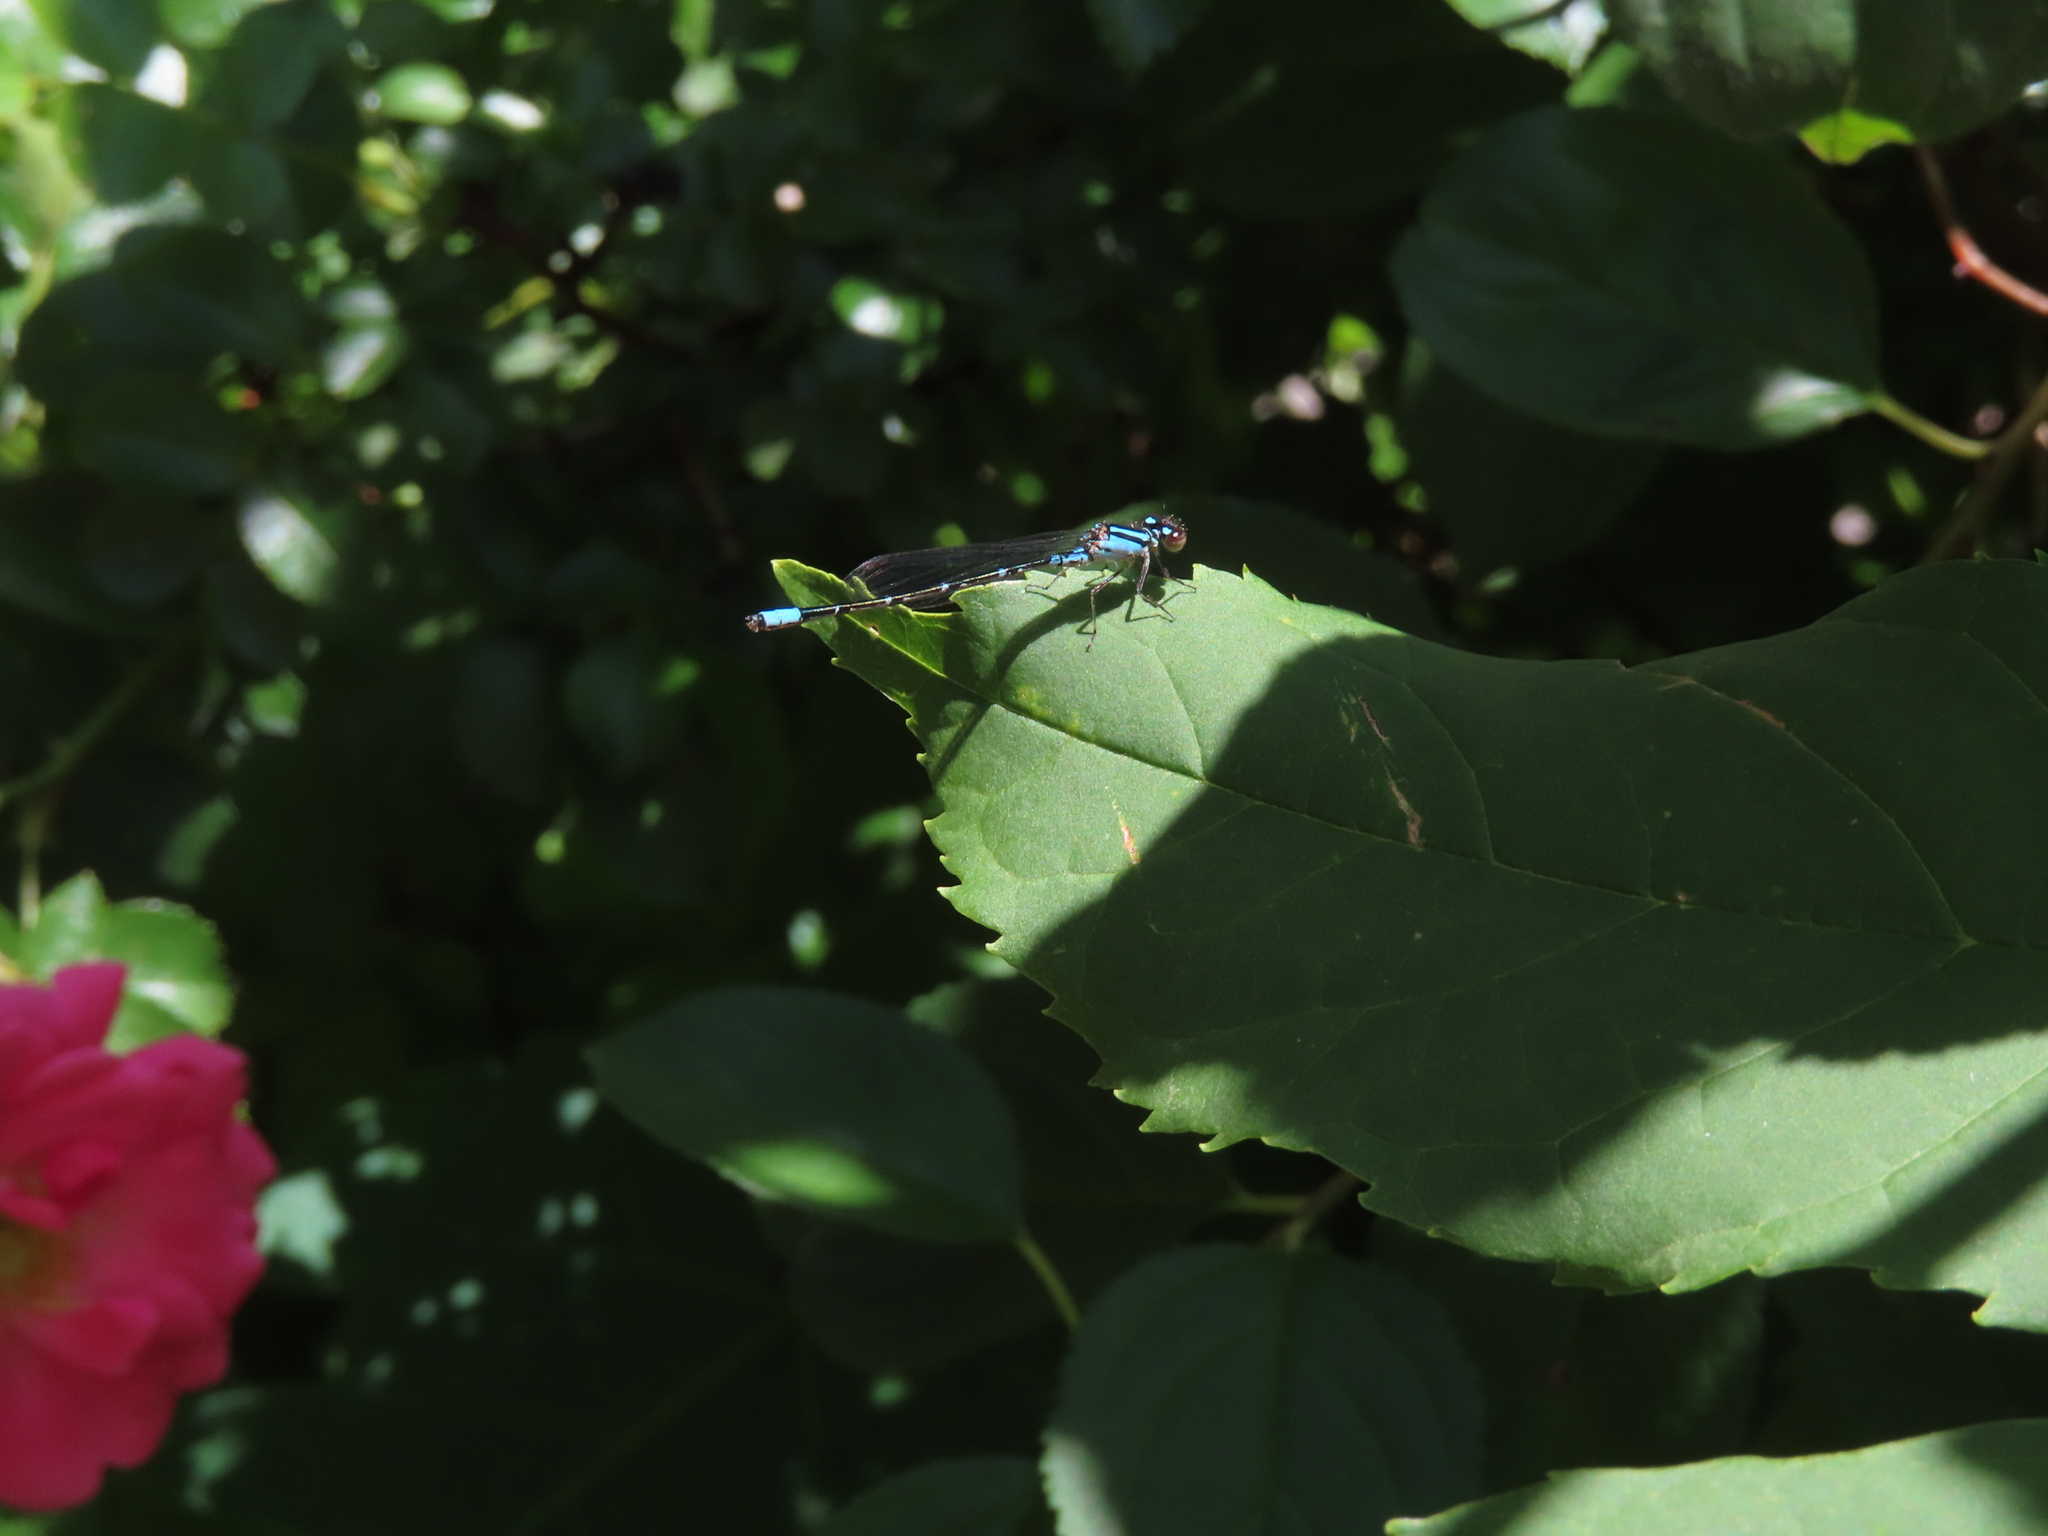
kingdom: Animalia
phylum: Arthropoda
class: Insecta
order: Odonata
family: Coenagrionidae
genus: Enallagma
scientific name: Enallagma geminatum
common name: Skimming bluet
